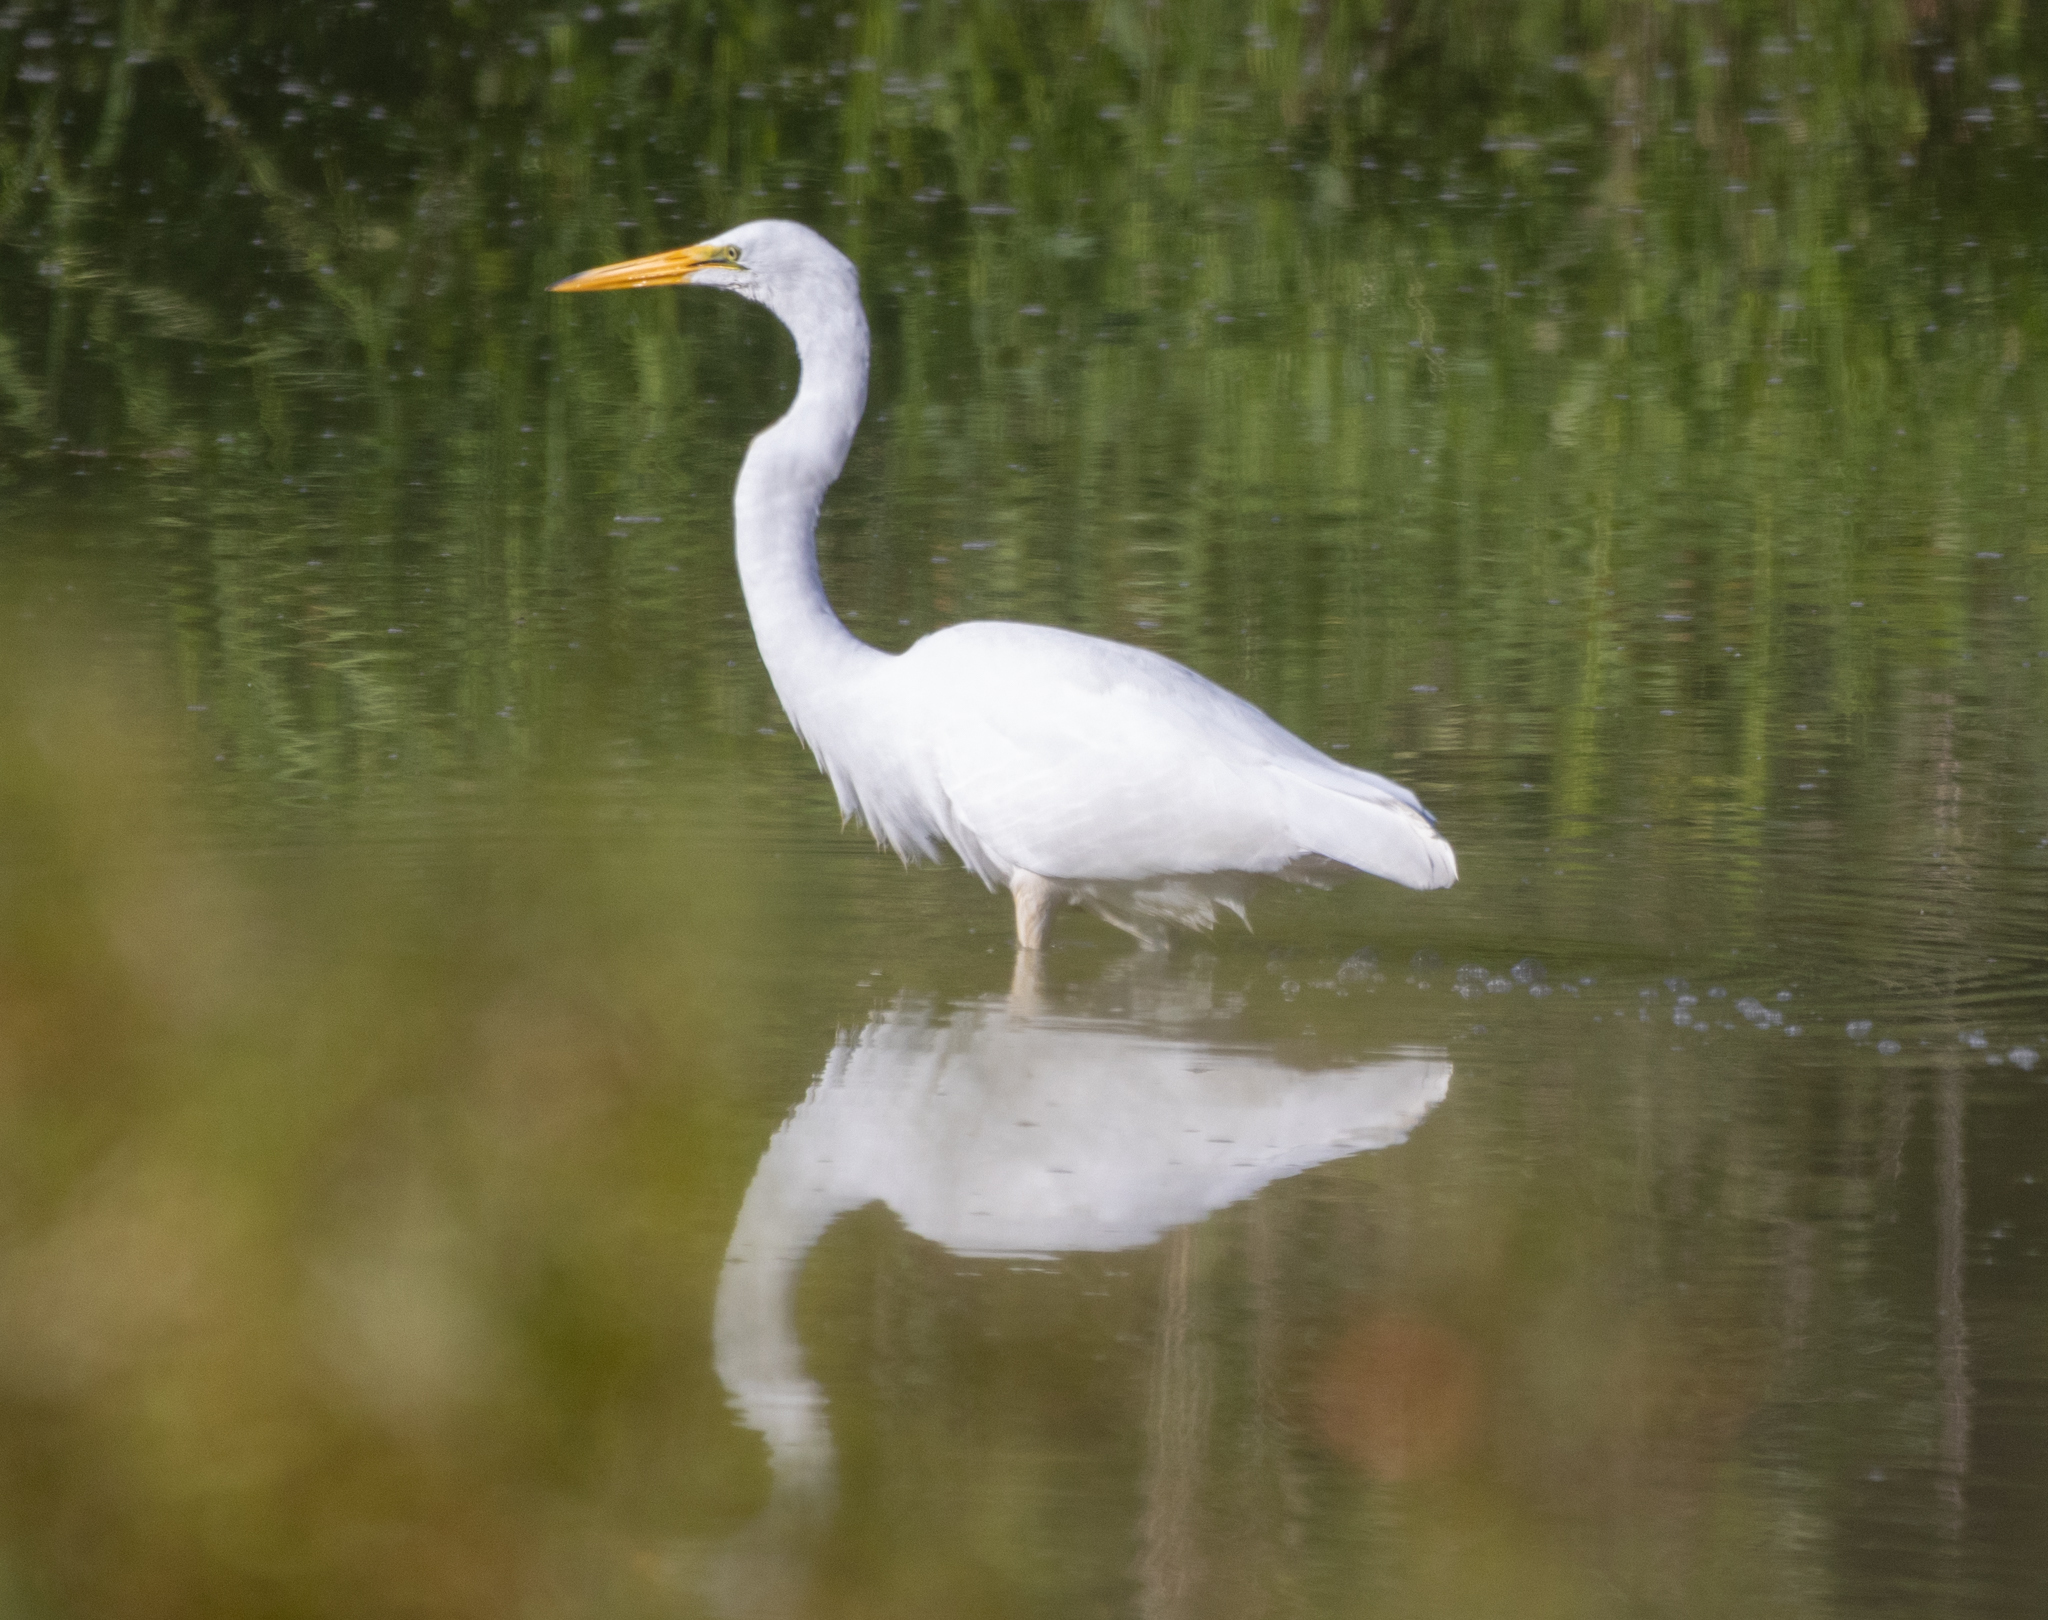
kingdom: Animalia
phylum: Chordata
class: Aves
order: Pelecaniformes
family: Ardeidae
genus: Ardea
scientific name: Ardea alba
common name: Great egret
